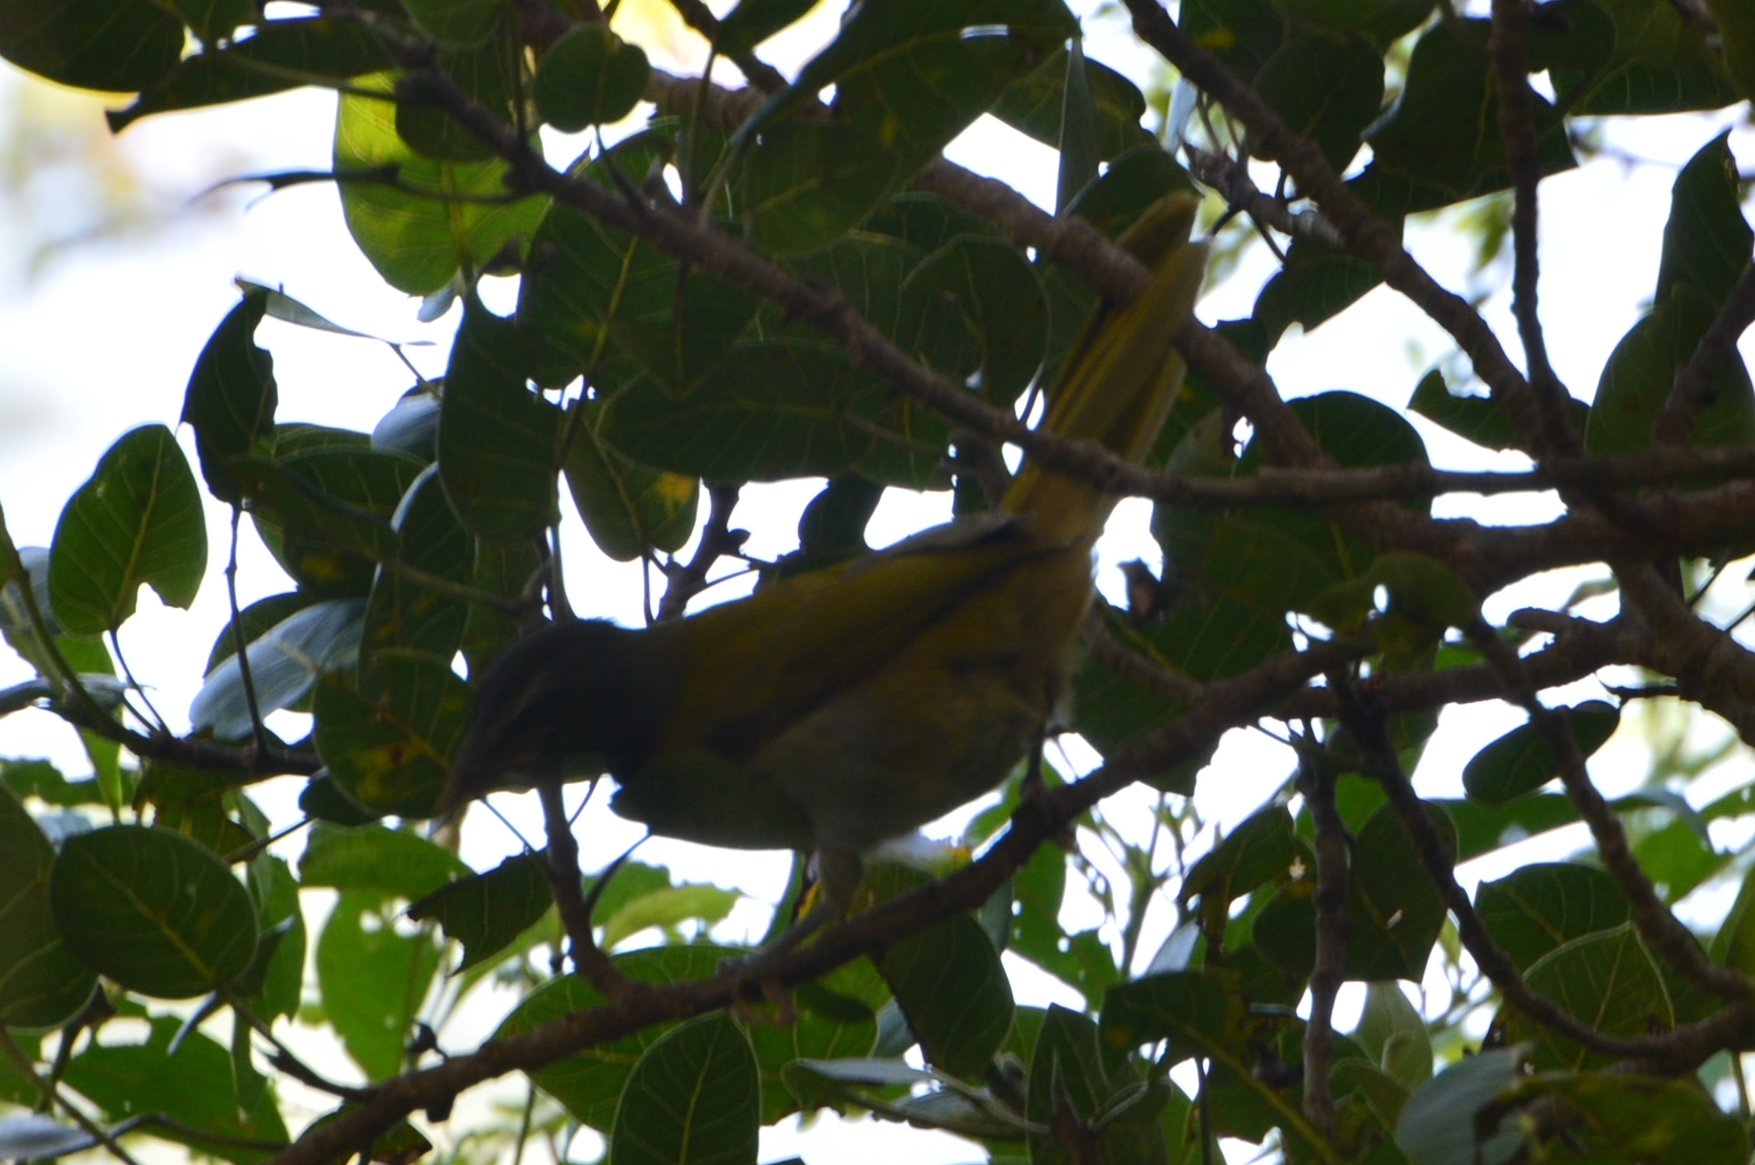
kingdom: Animalia
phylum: Chordata
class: Aves
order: Passeriformes
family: Thraupidae
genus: Saltator
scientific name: Saltator atriceps
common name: Black-headed saltator
